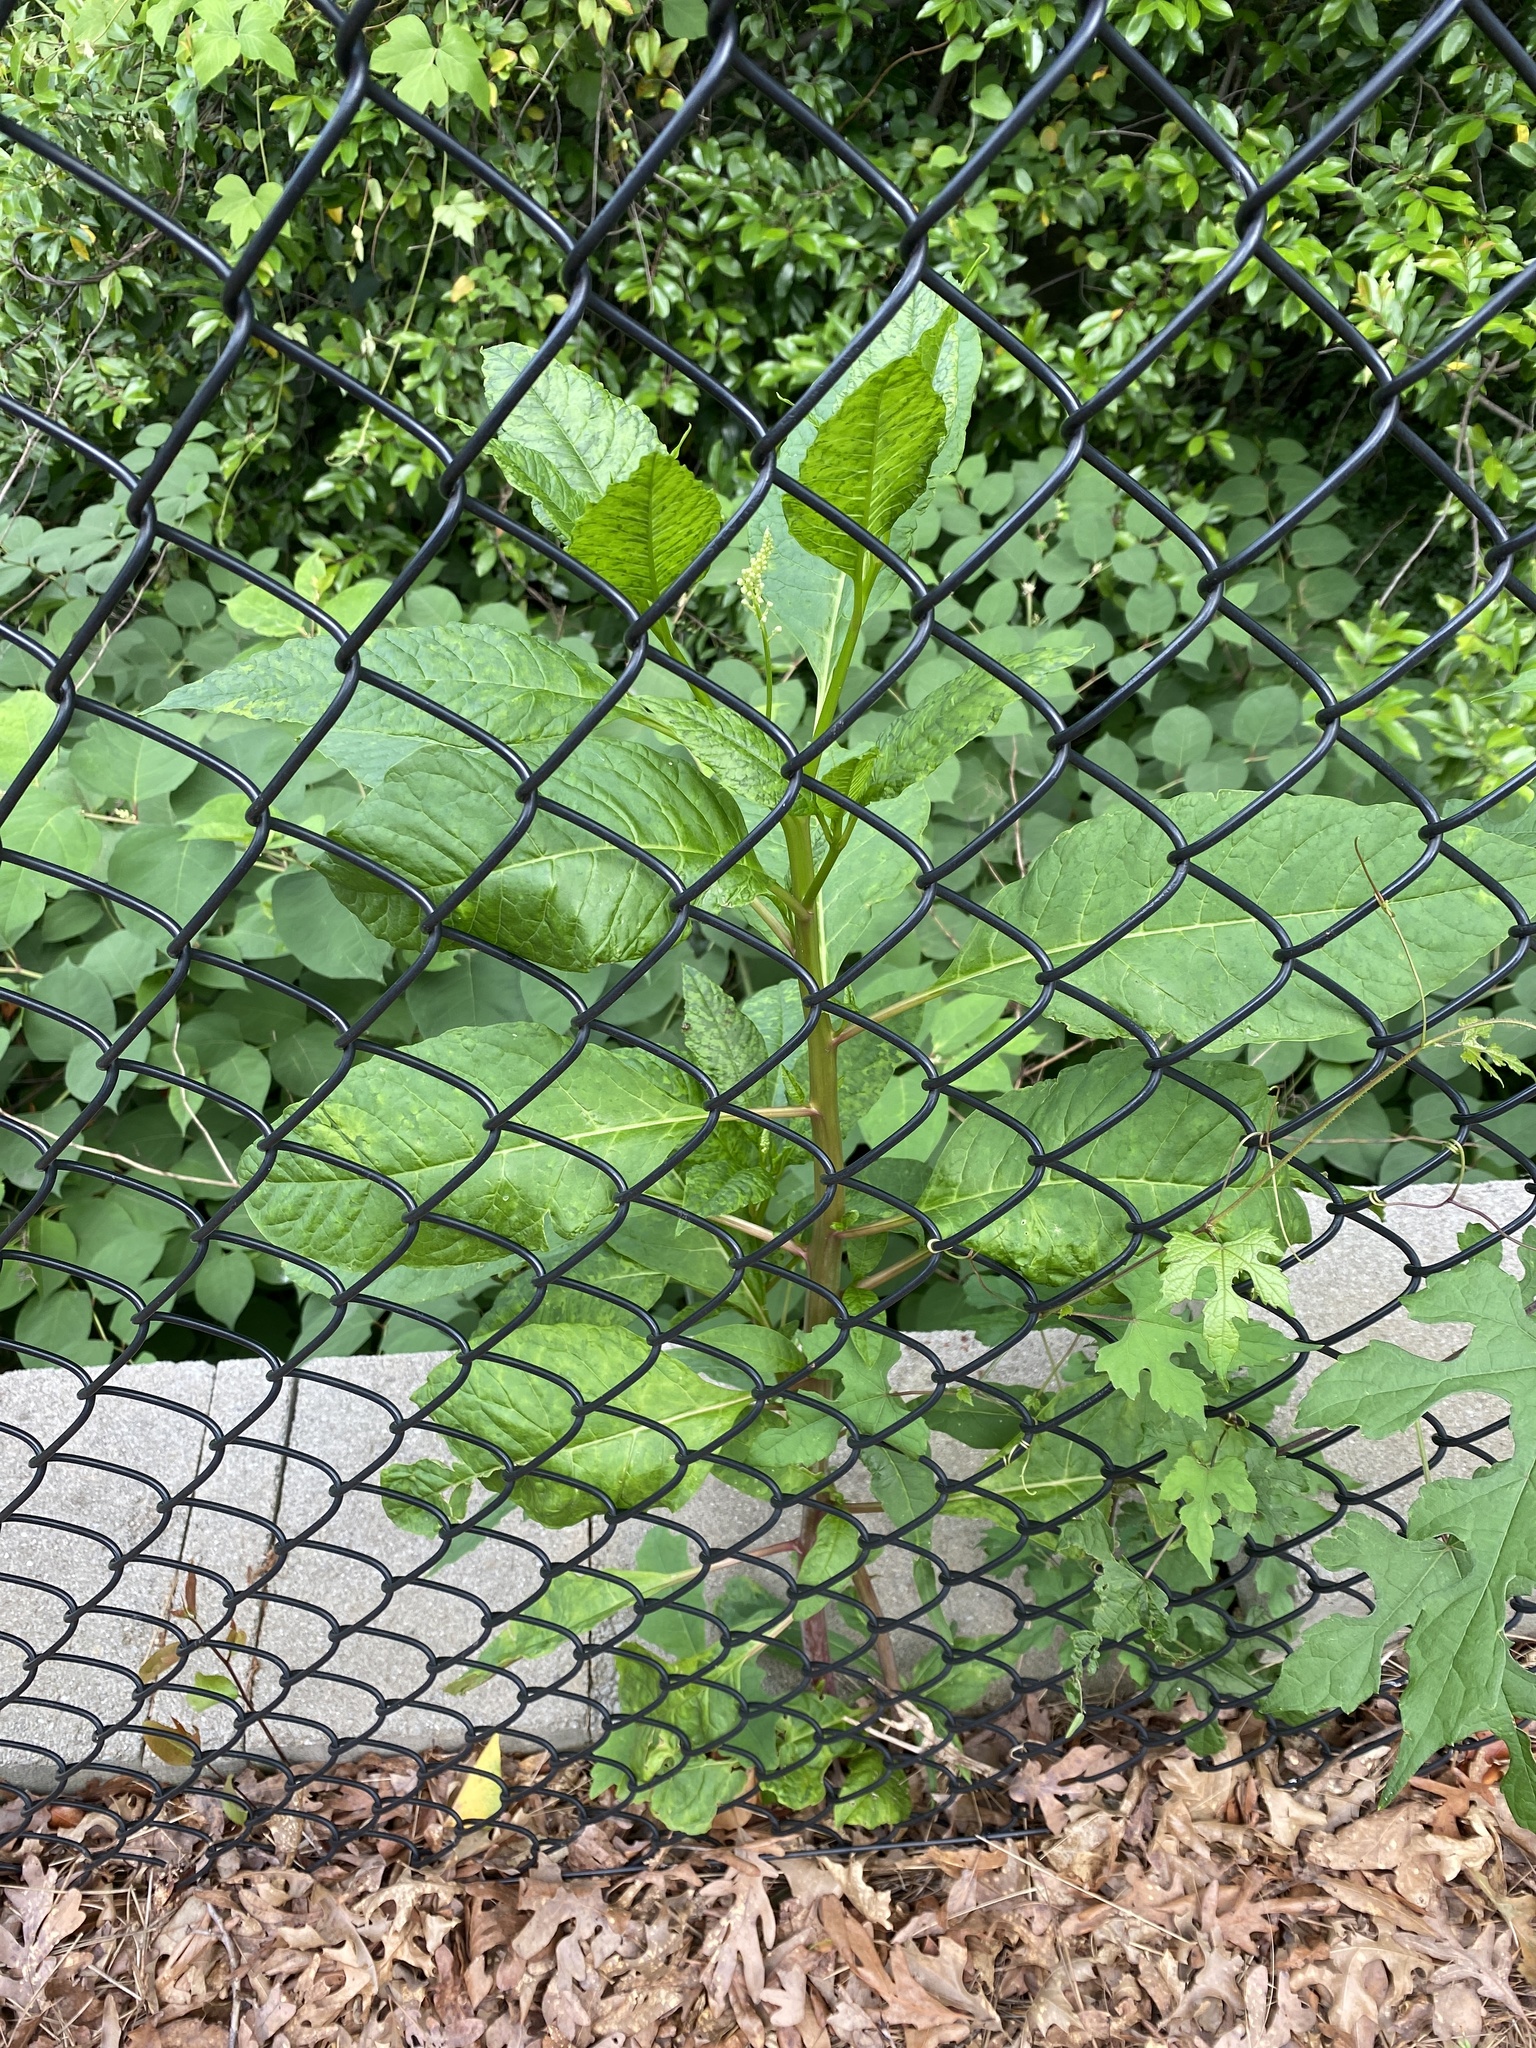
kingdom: Plantae
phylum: Tracheophyta
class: Magnoliopsida
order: Caryophyllales
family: Phytolaccaceae
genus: Phytolacca
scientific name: Phytolacca americana
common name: American pokeweed
